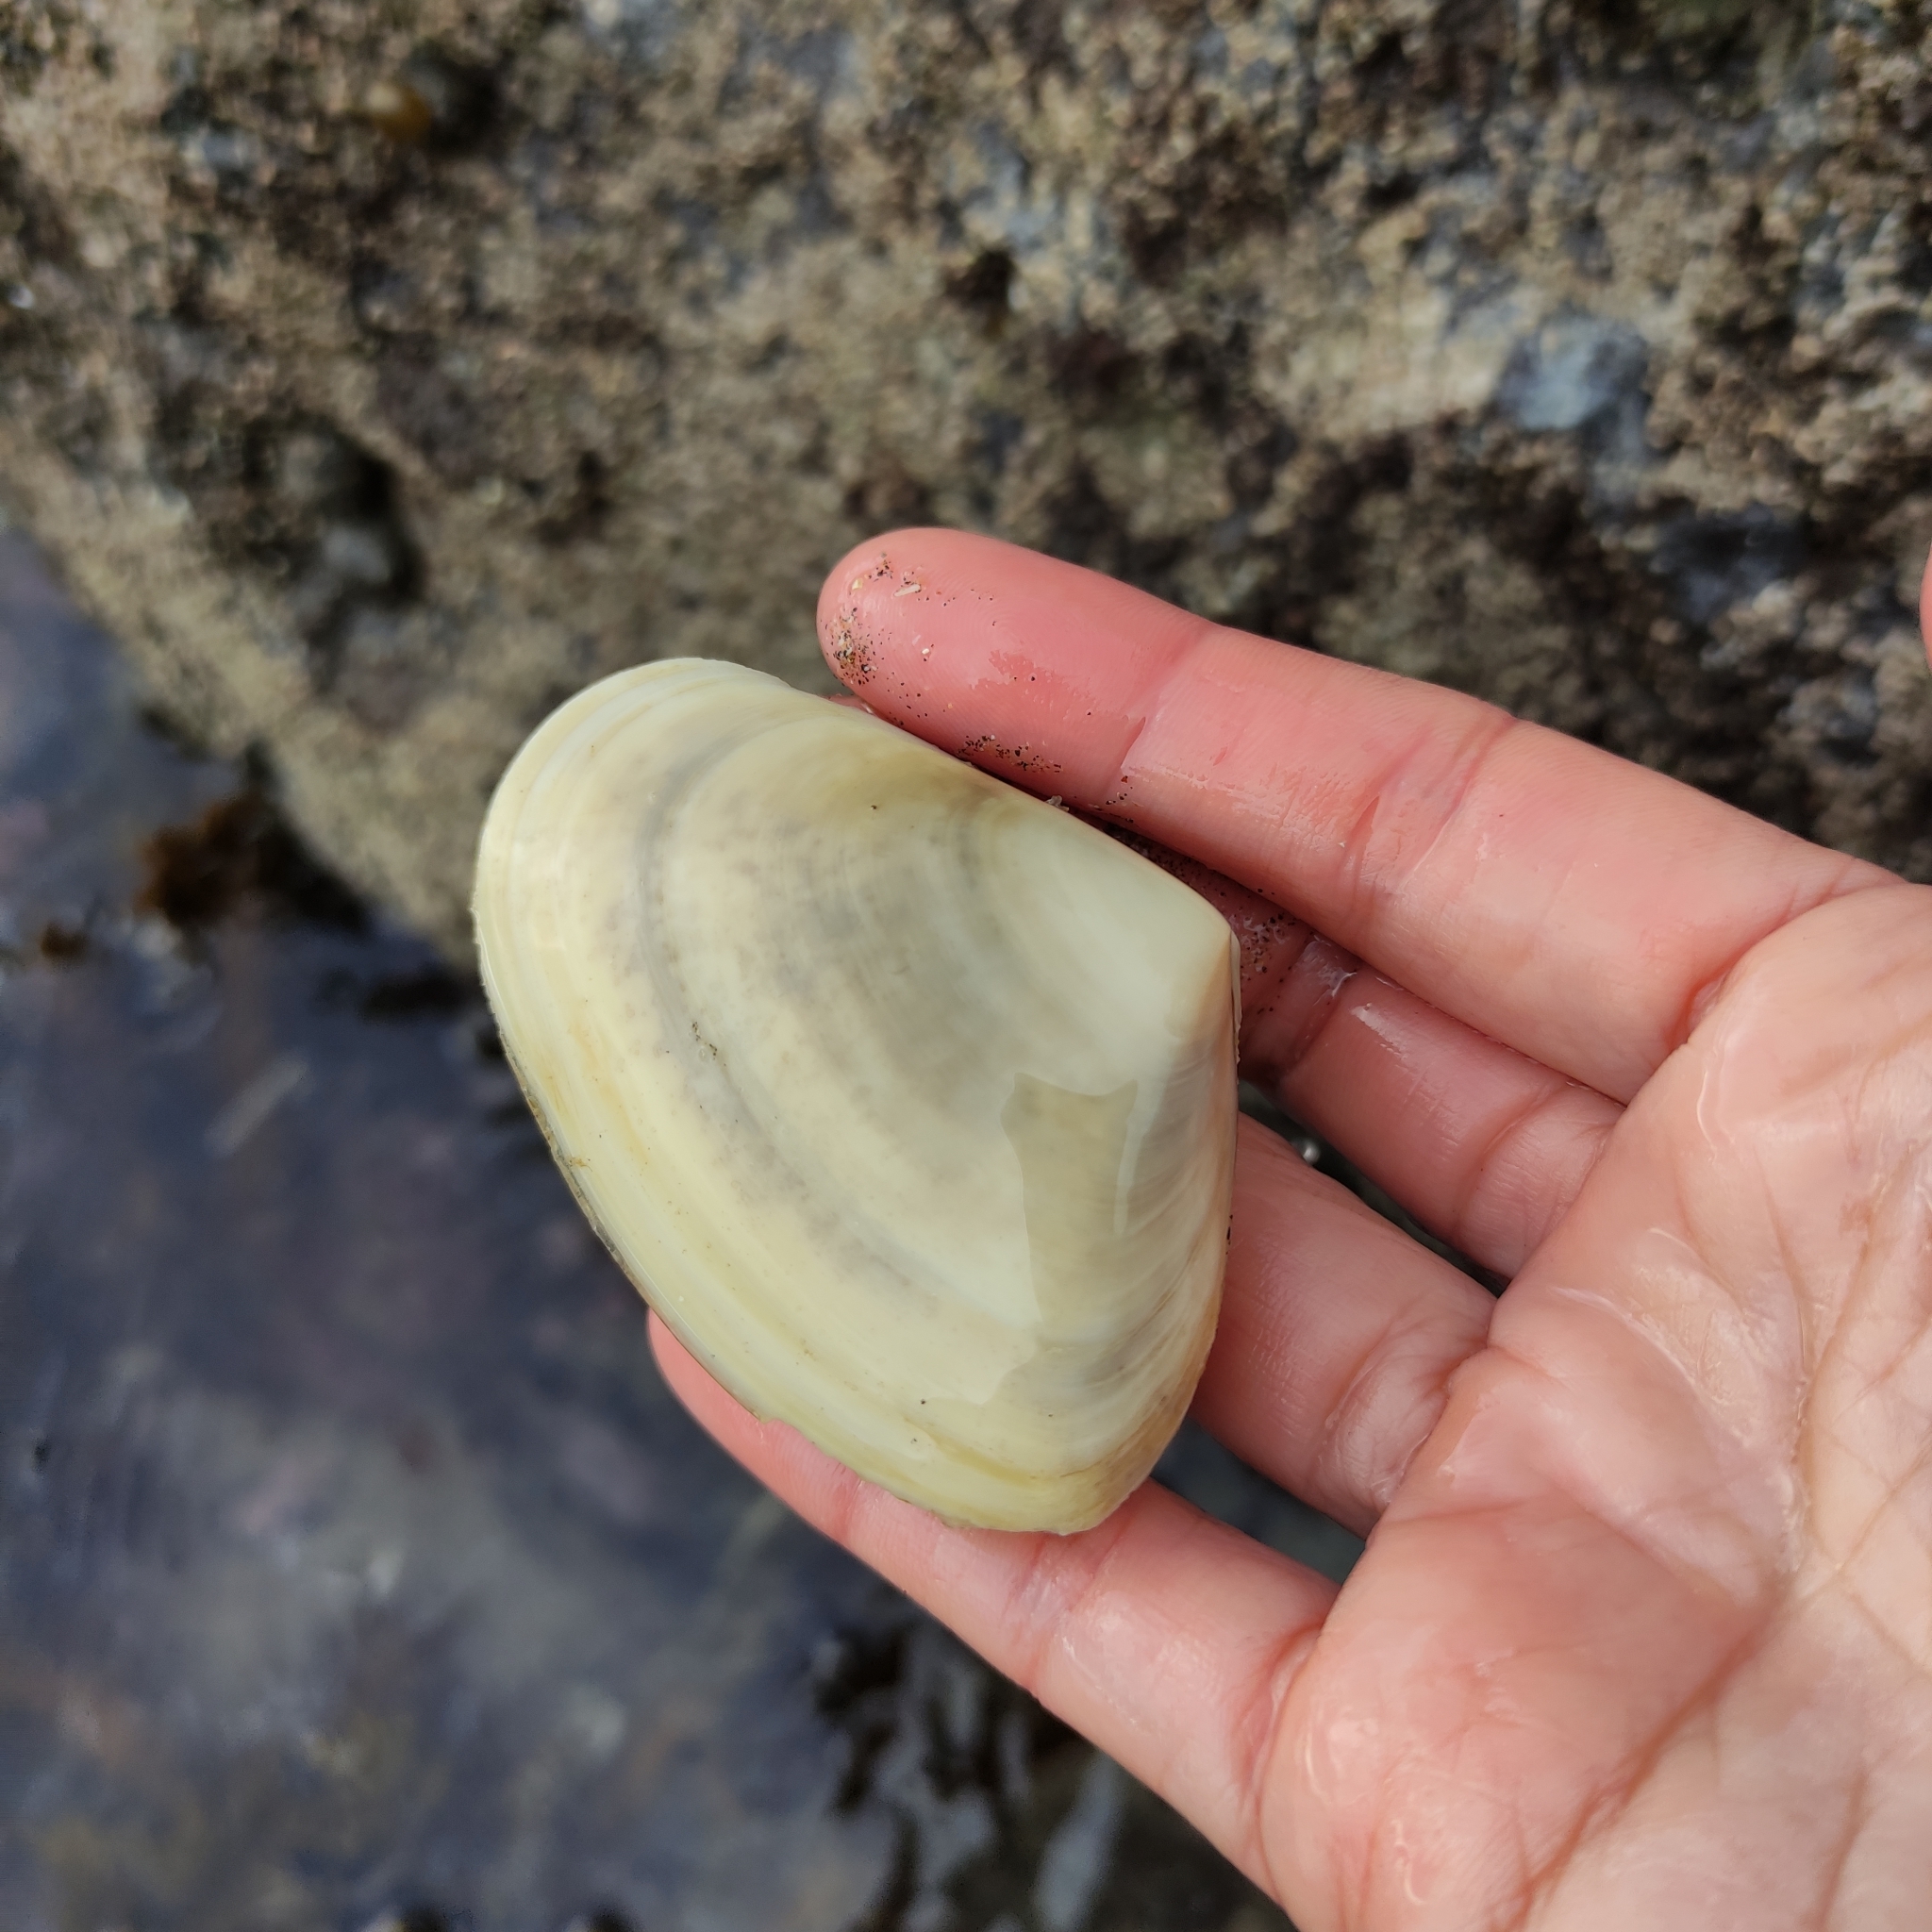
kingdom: Animalia
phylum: Mollusca
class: Bivalvia
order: Venerida
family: Mesodesmatidae
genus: Paphies
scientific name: Paphies donacina
